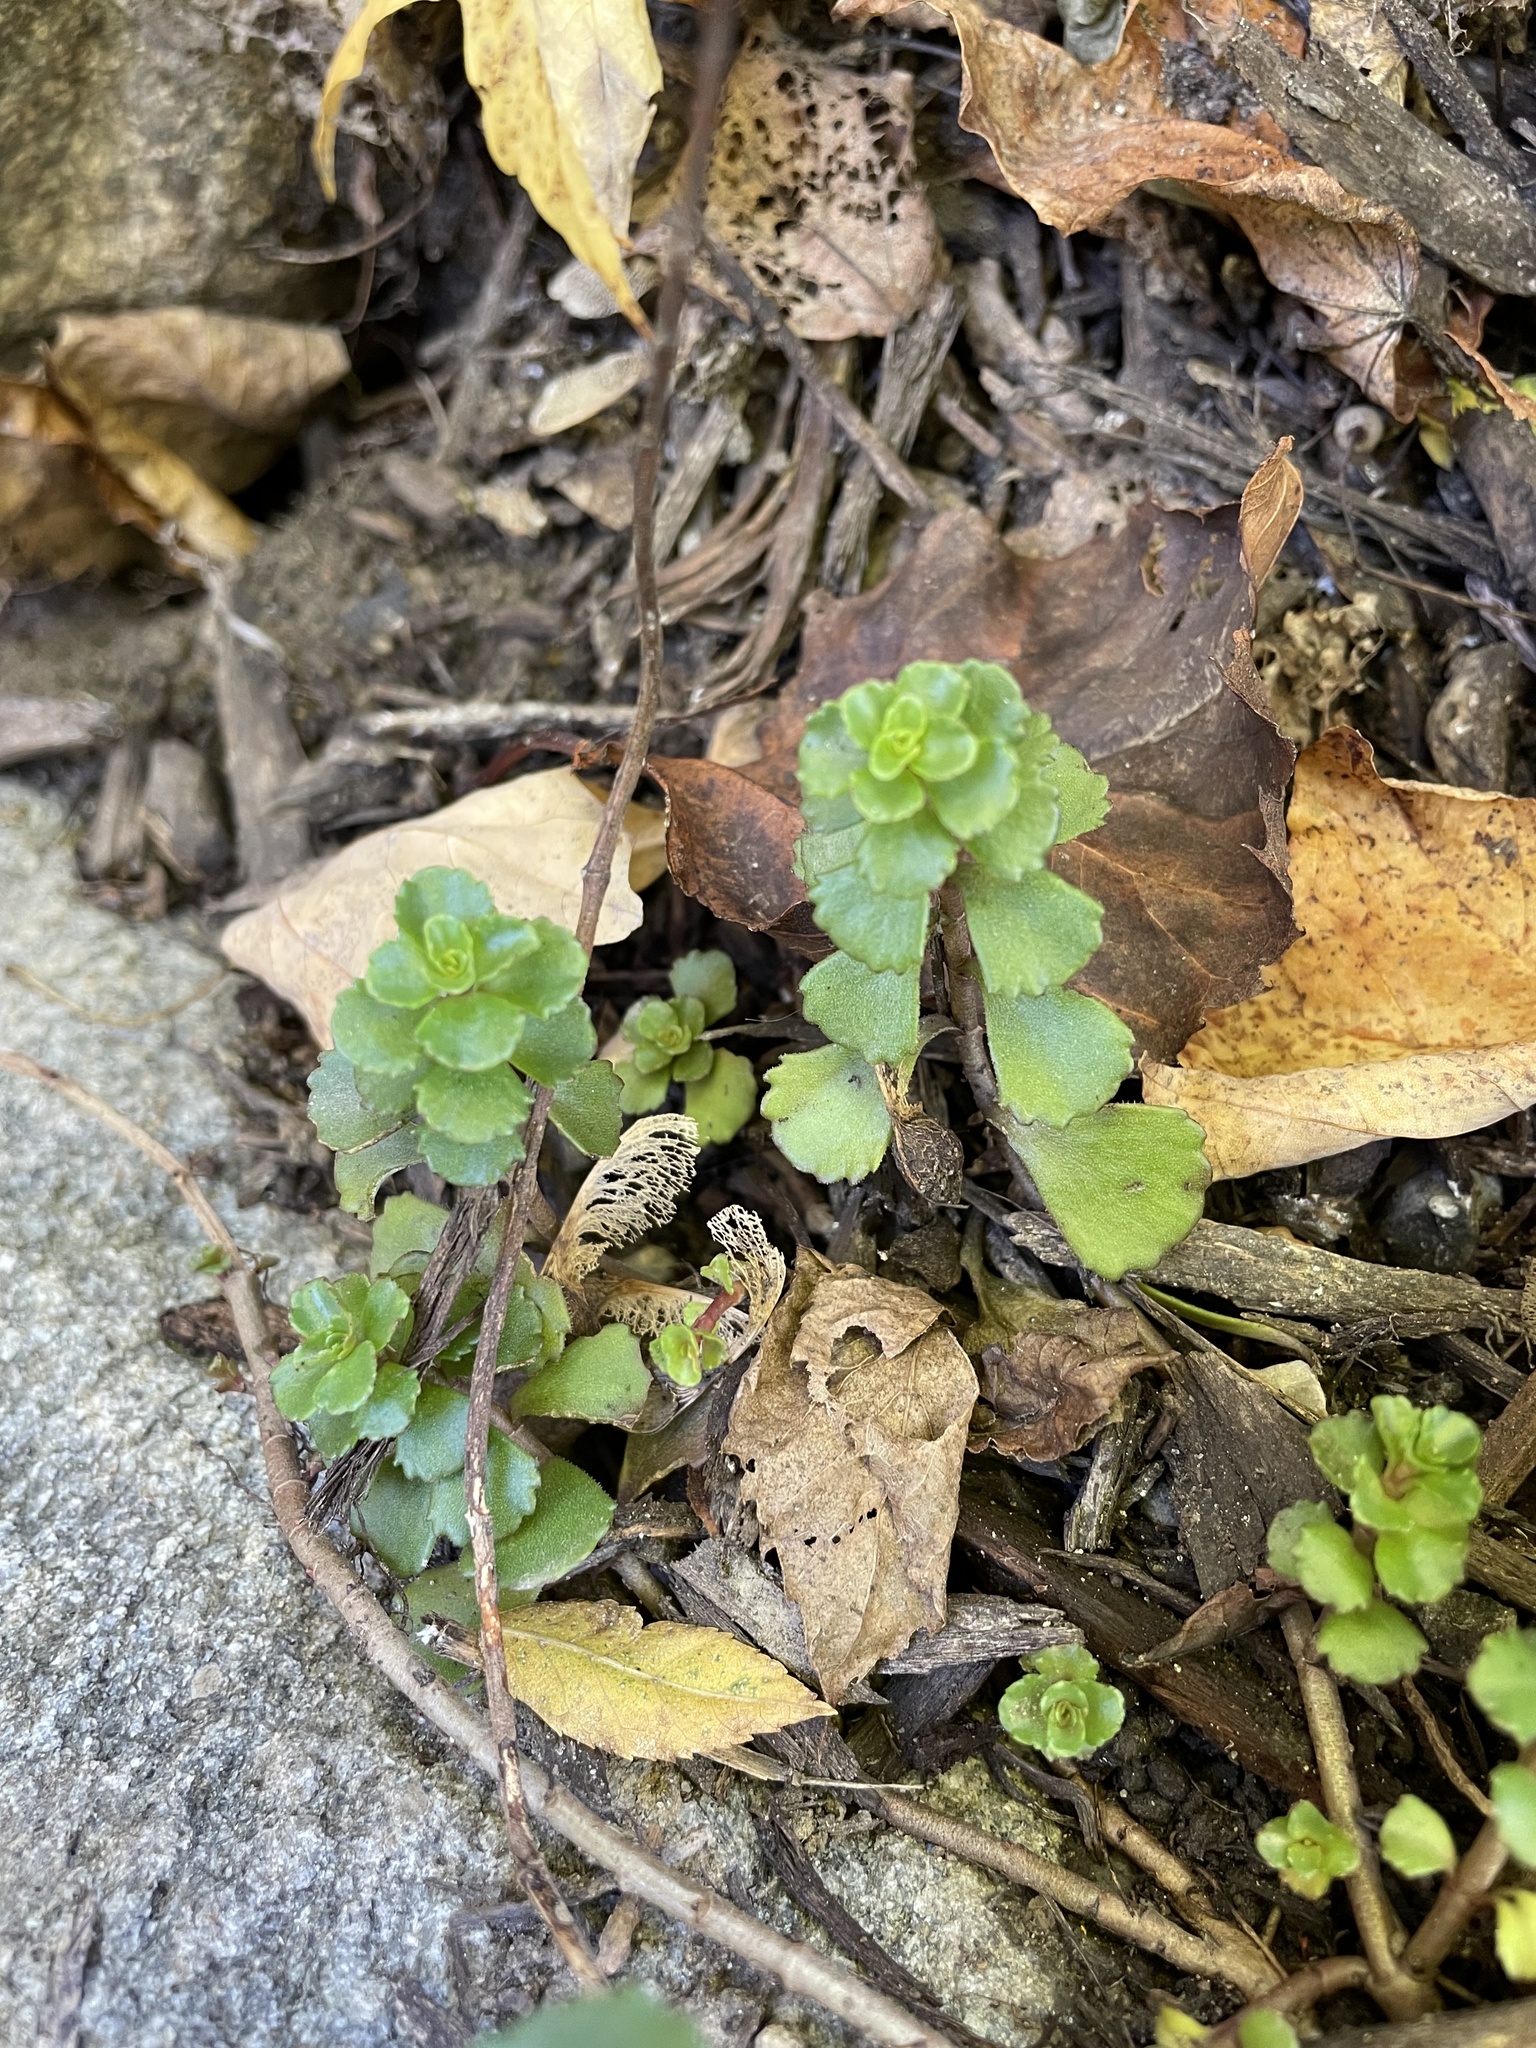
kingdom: Plantae
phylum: Tracheophyta
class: Magnoliopsida
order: Saxifragales
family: Crassulaceae
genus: Phedimus
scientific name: Phedimus spurius
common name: Caucasian stonecrop
